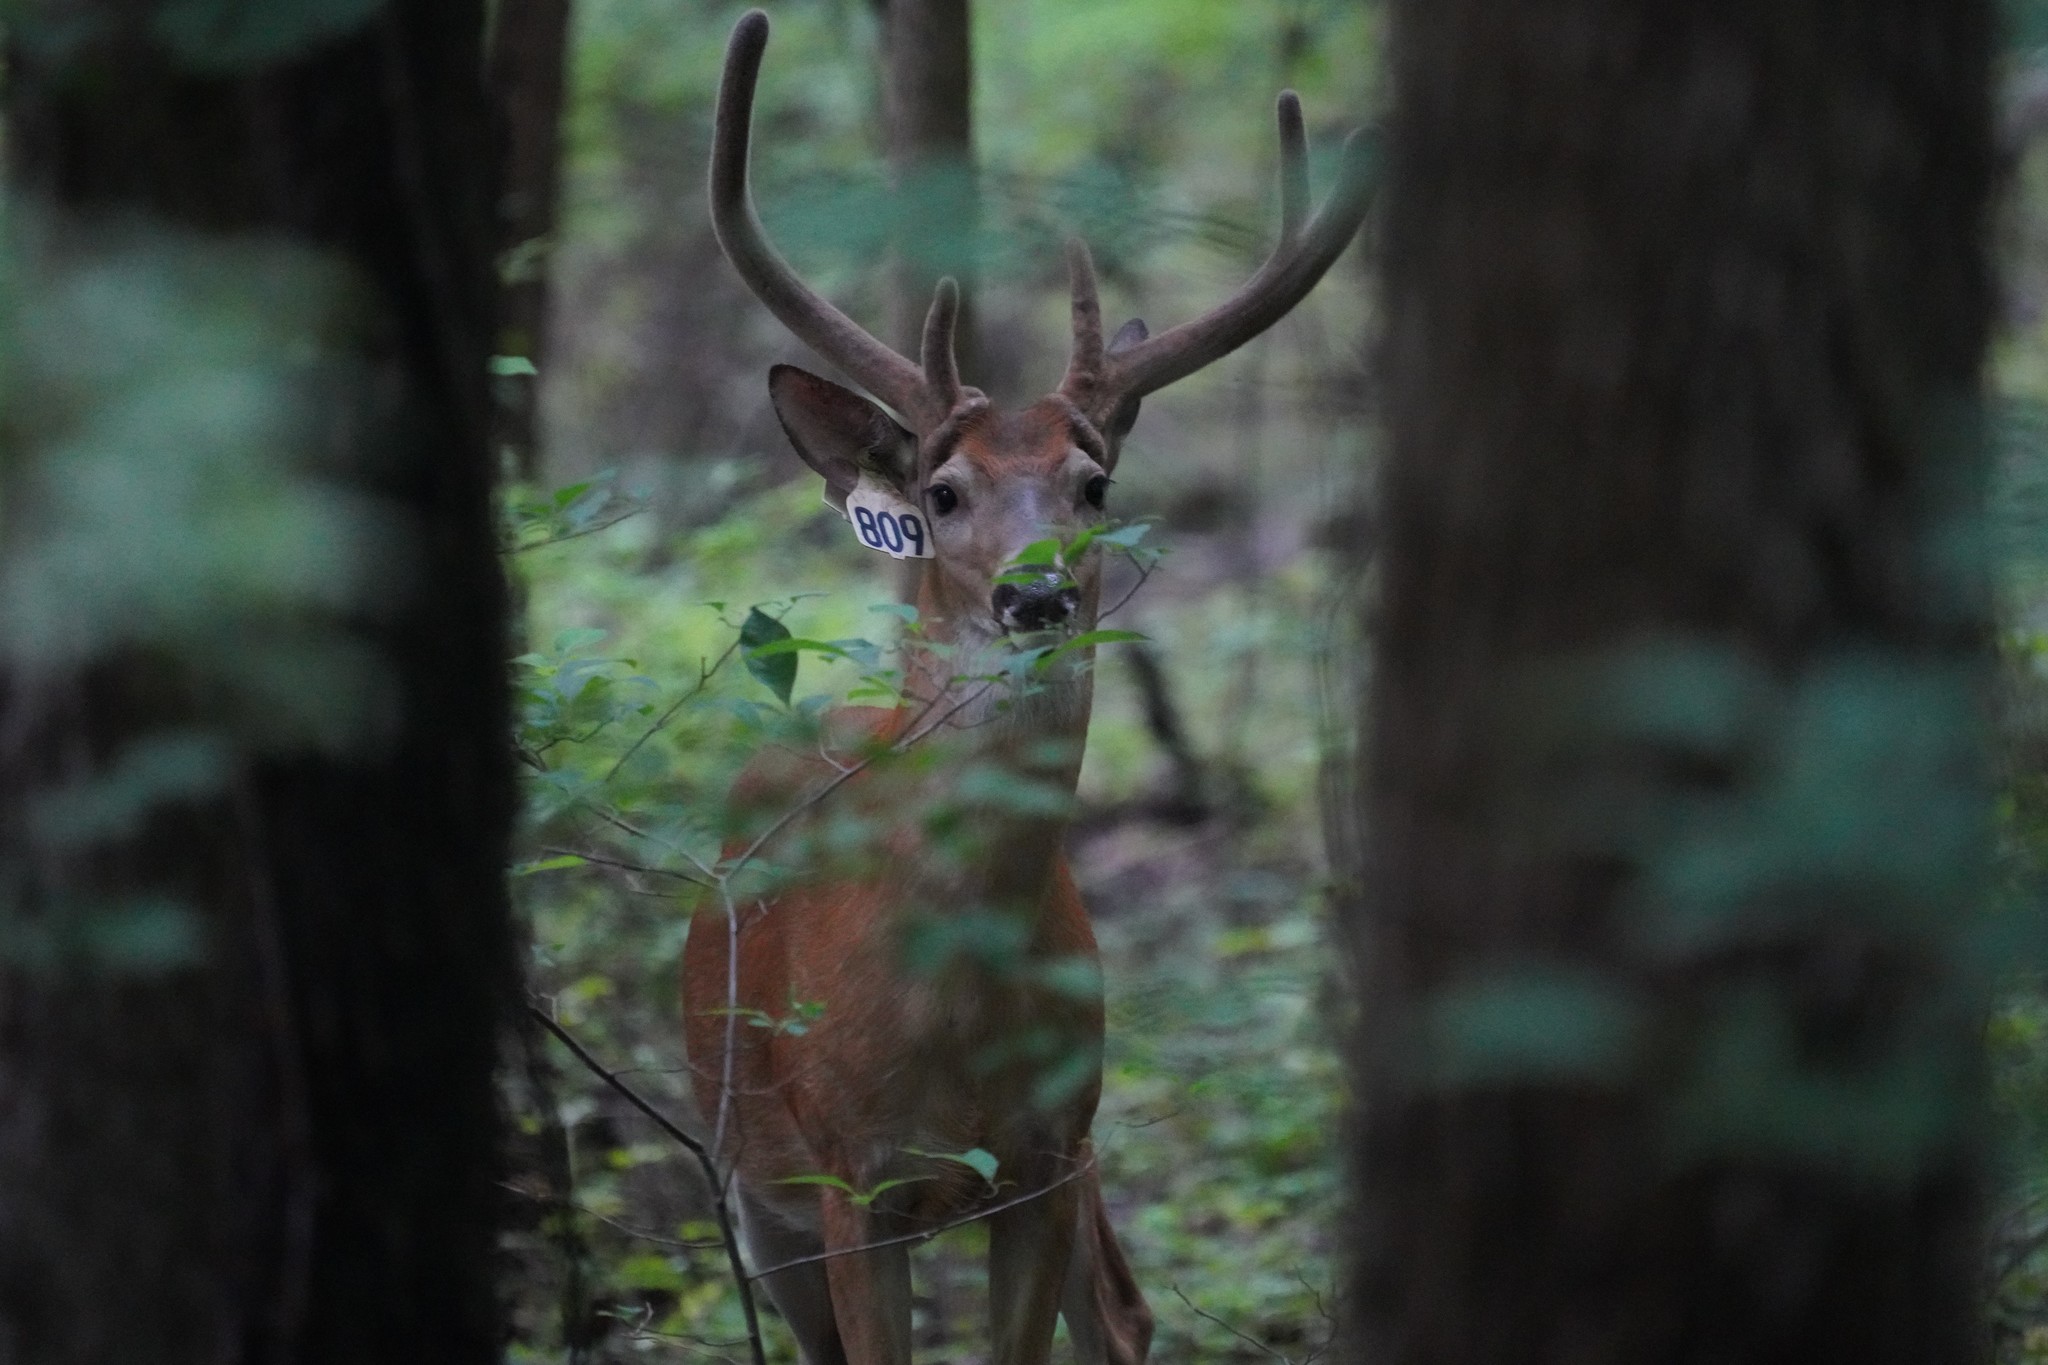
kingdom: Animalia
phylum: Chordata
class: Mammalia
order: Artiodactyla
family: Cervidae
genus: Odocoileus
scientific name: Odocoileus virginianus
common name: White-tailed deer
